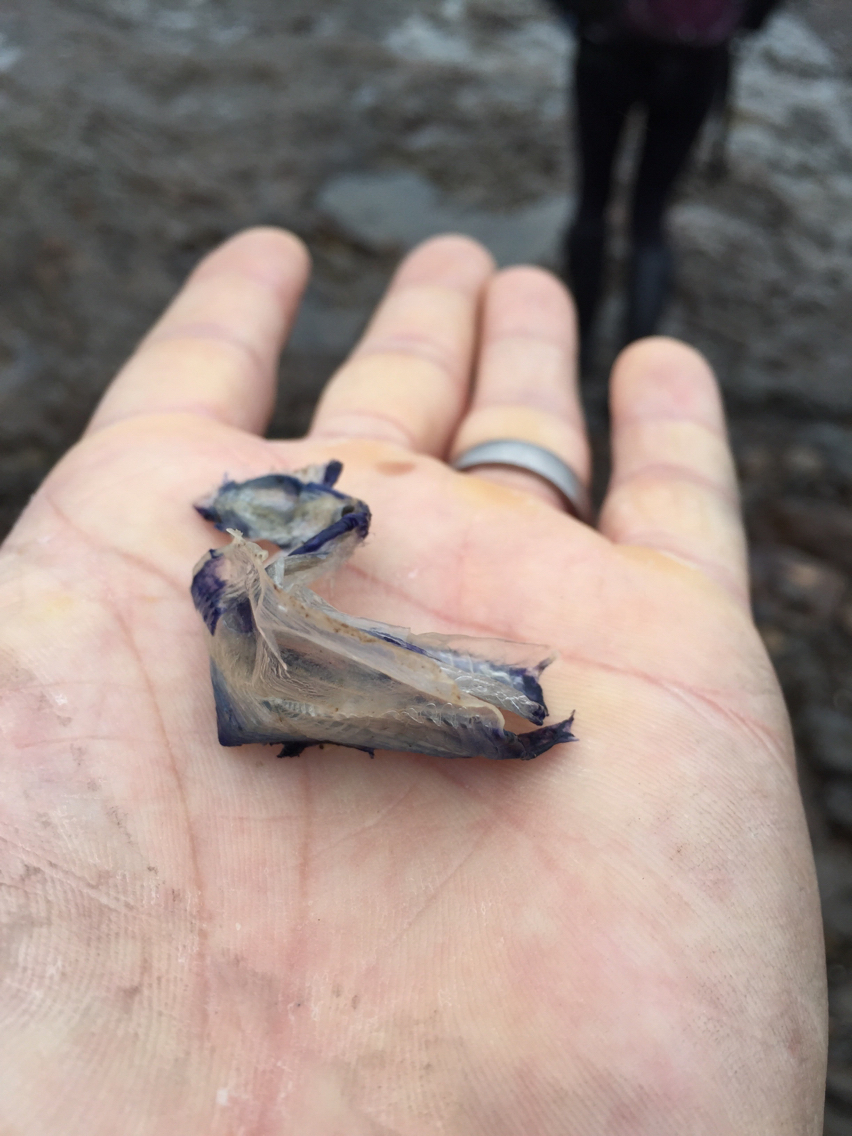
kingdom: Animalia
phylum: Cnidaria
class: Hydrozoa
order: Anthoathecata
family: Porpitidae
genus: Velella
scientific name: Velella velella
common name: By-the-wind-sailor
